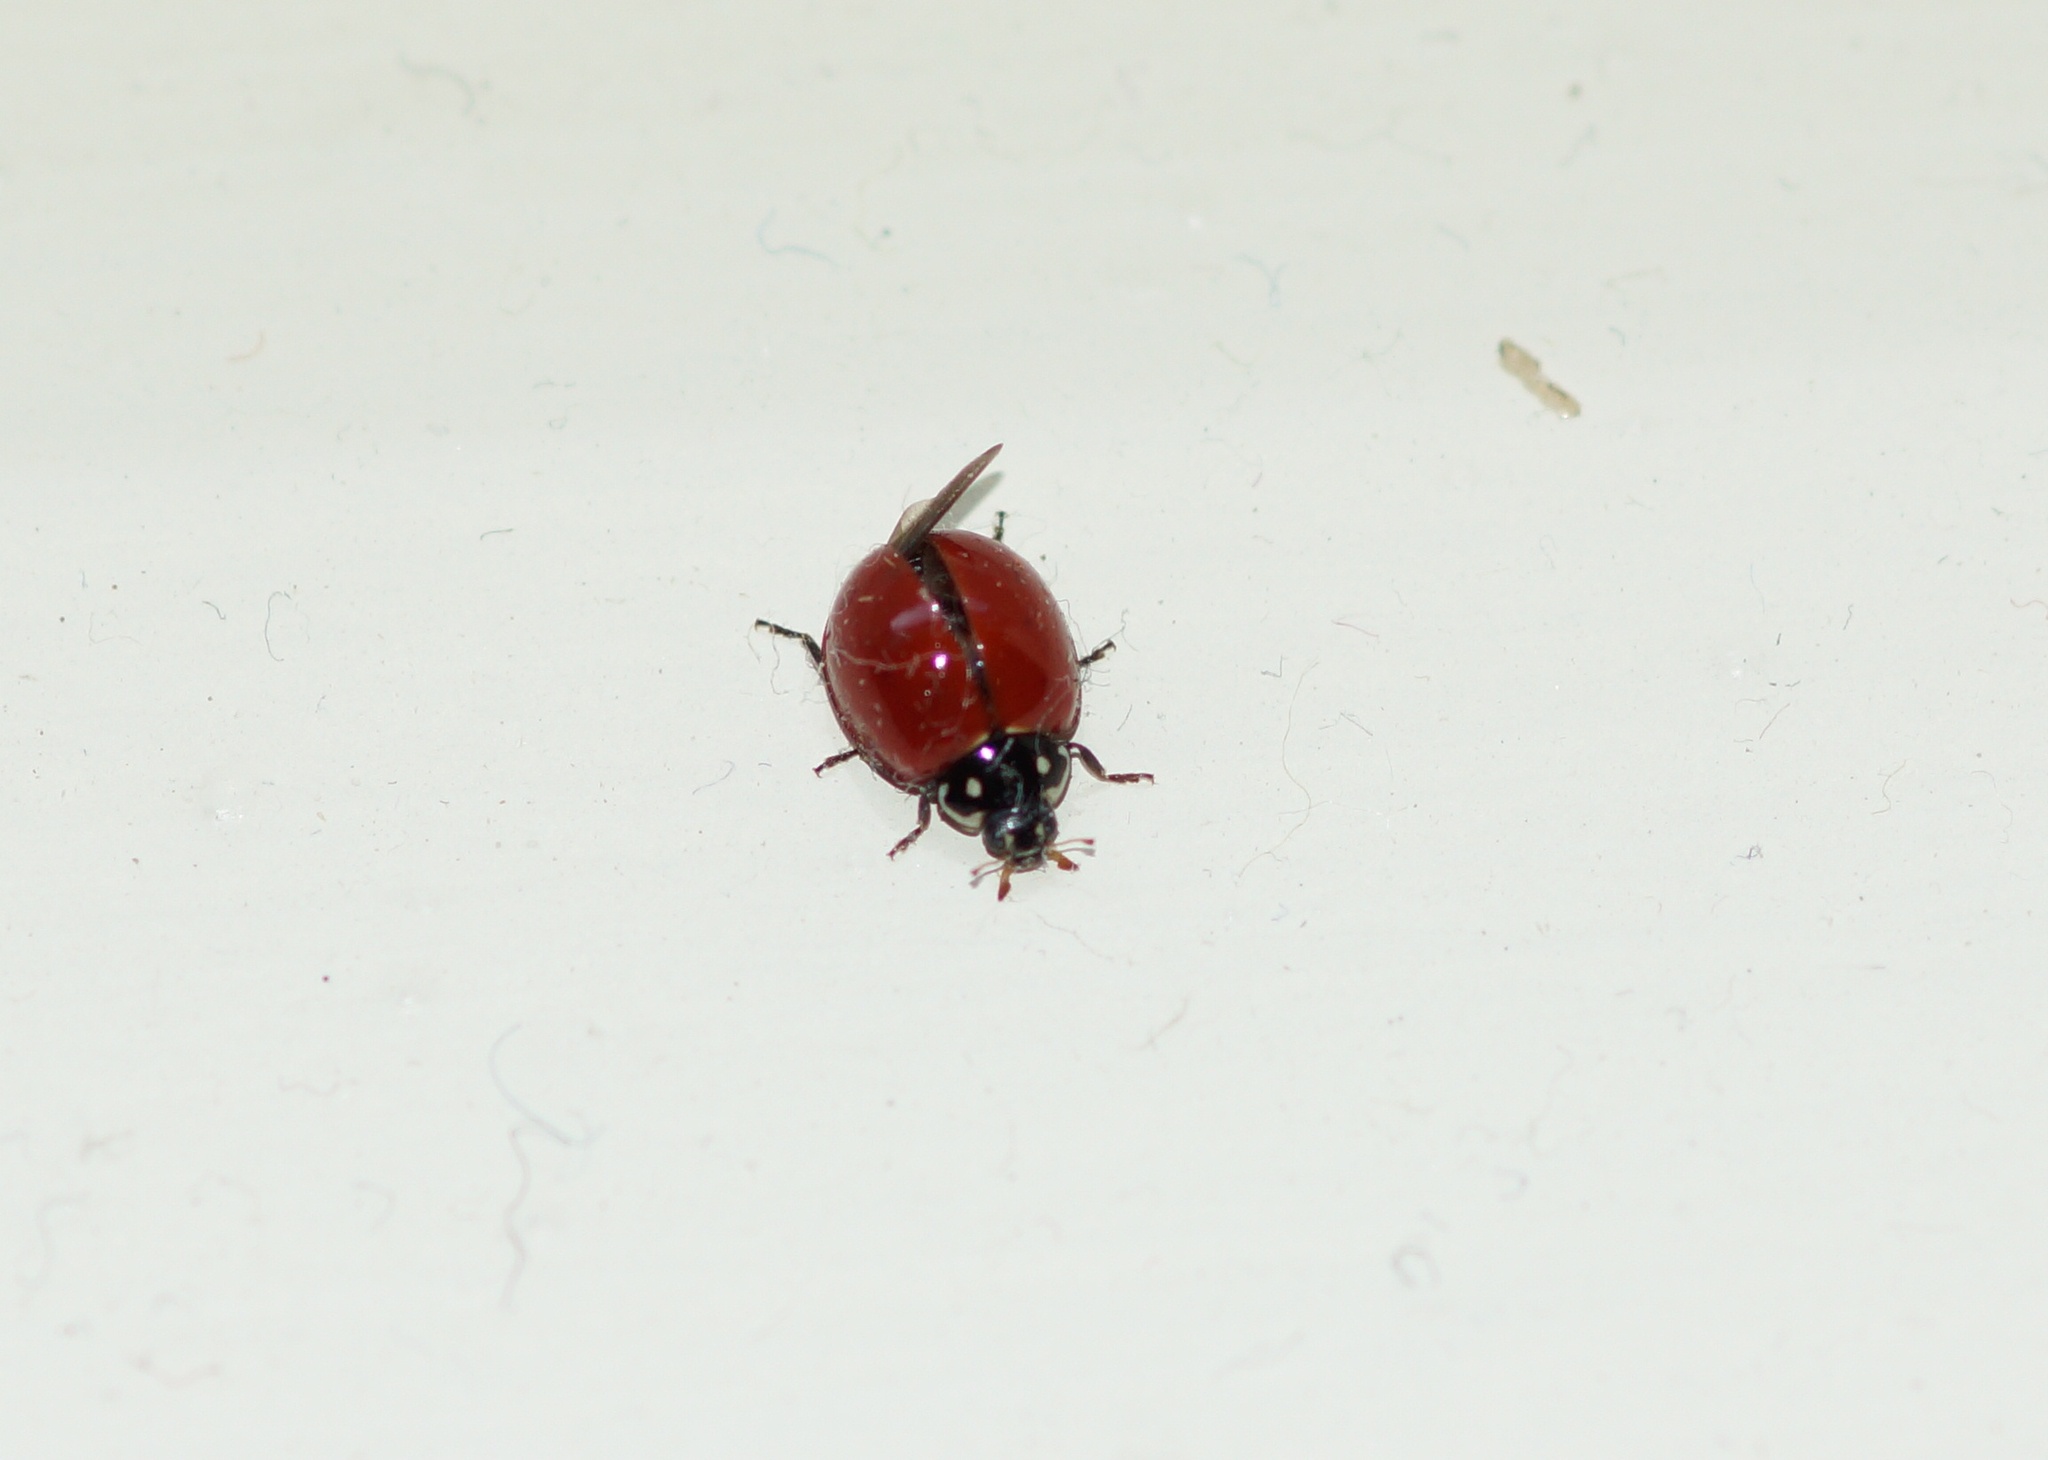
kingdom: Animalia
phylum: Arthropoda
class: Insecta
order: Coleoptera
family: Coccinellidae
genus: Cycloneda
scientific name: Cycloneda sanguinea
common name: Ladybird beetle
